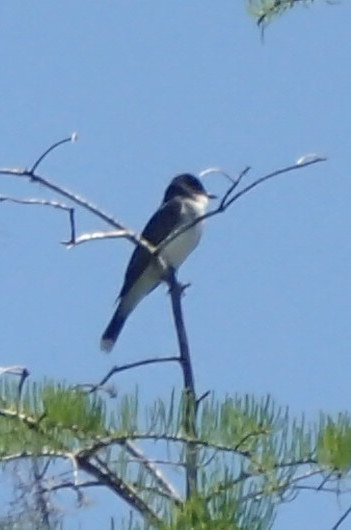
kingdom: Animalia
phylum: Chordata
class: Aves
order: Passeriformes
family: Tyrannidae
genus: Tyrannus
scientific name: Tyrannus tyrannus
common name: Eastern kingbird
